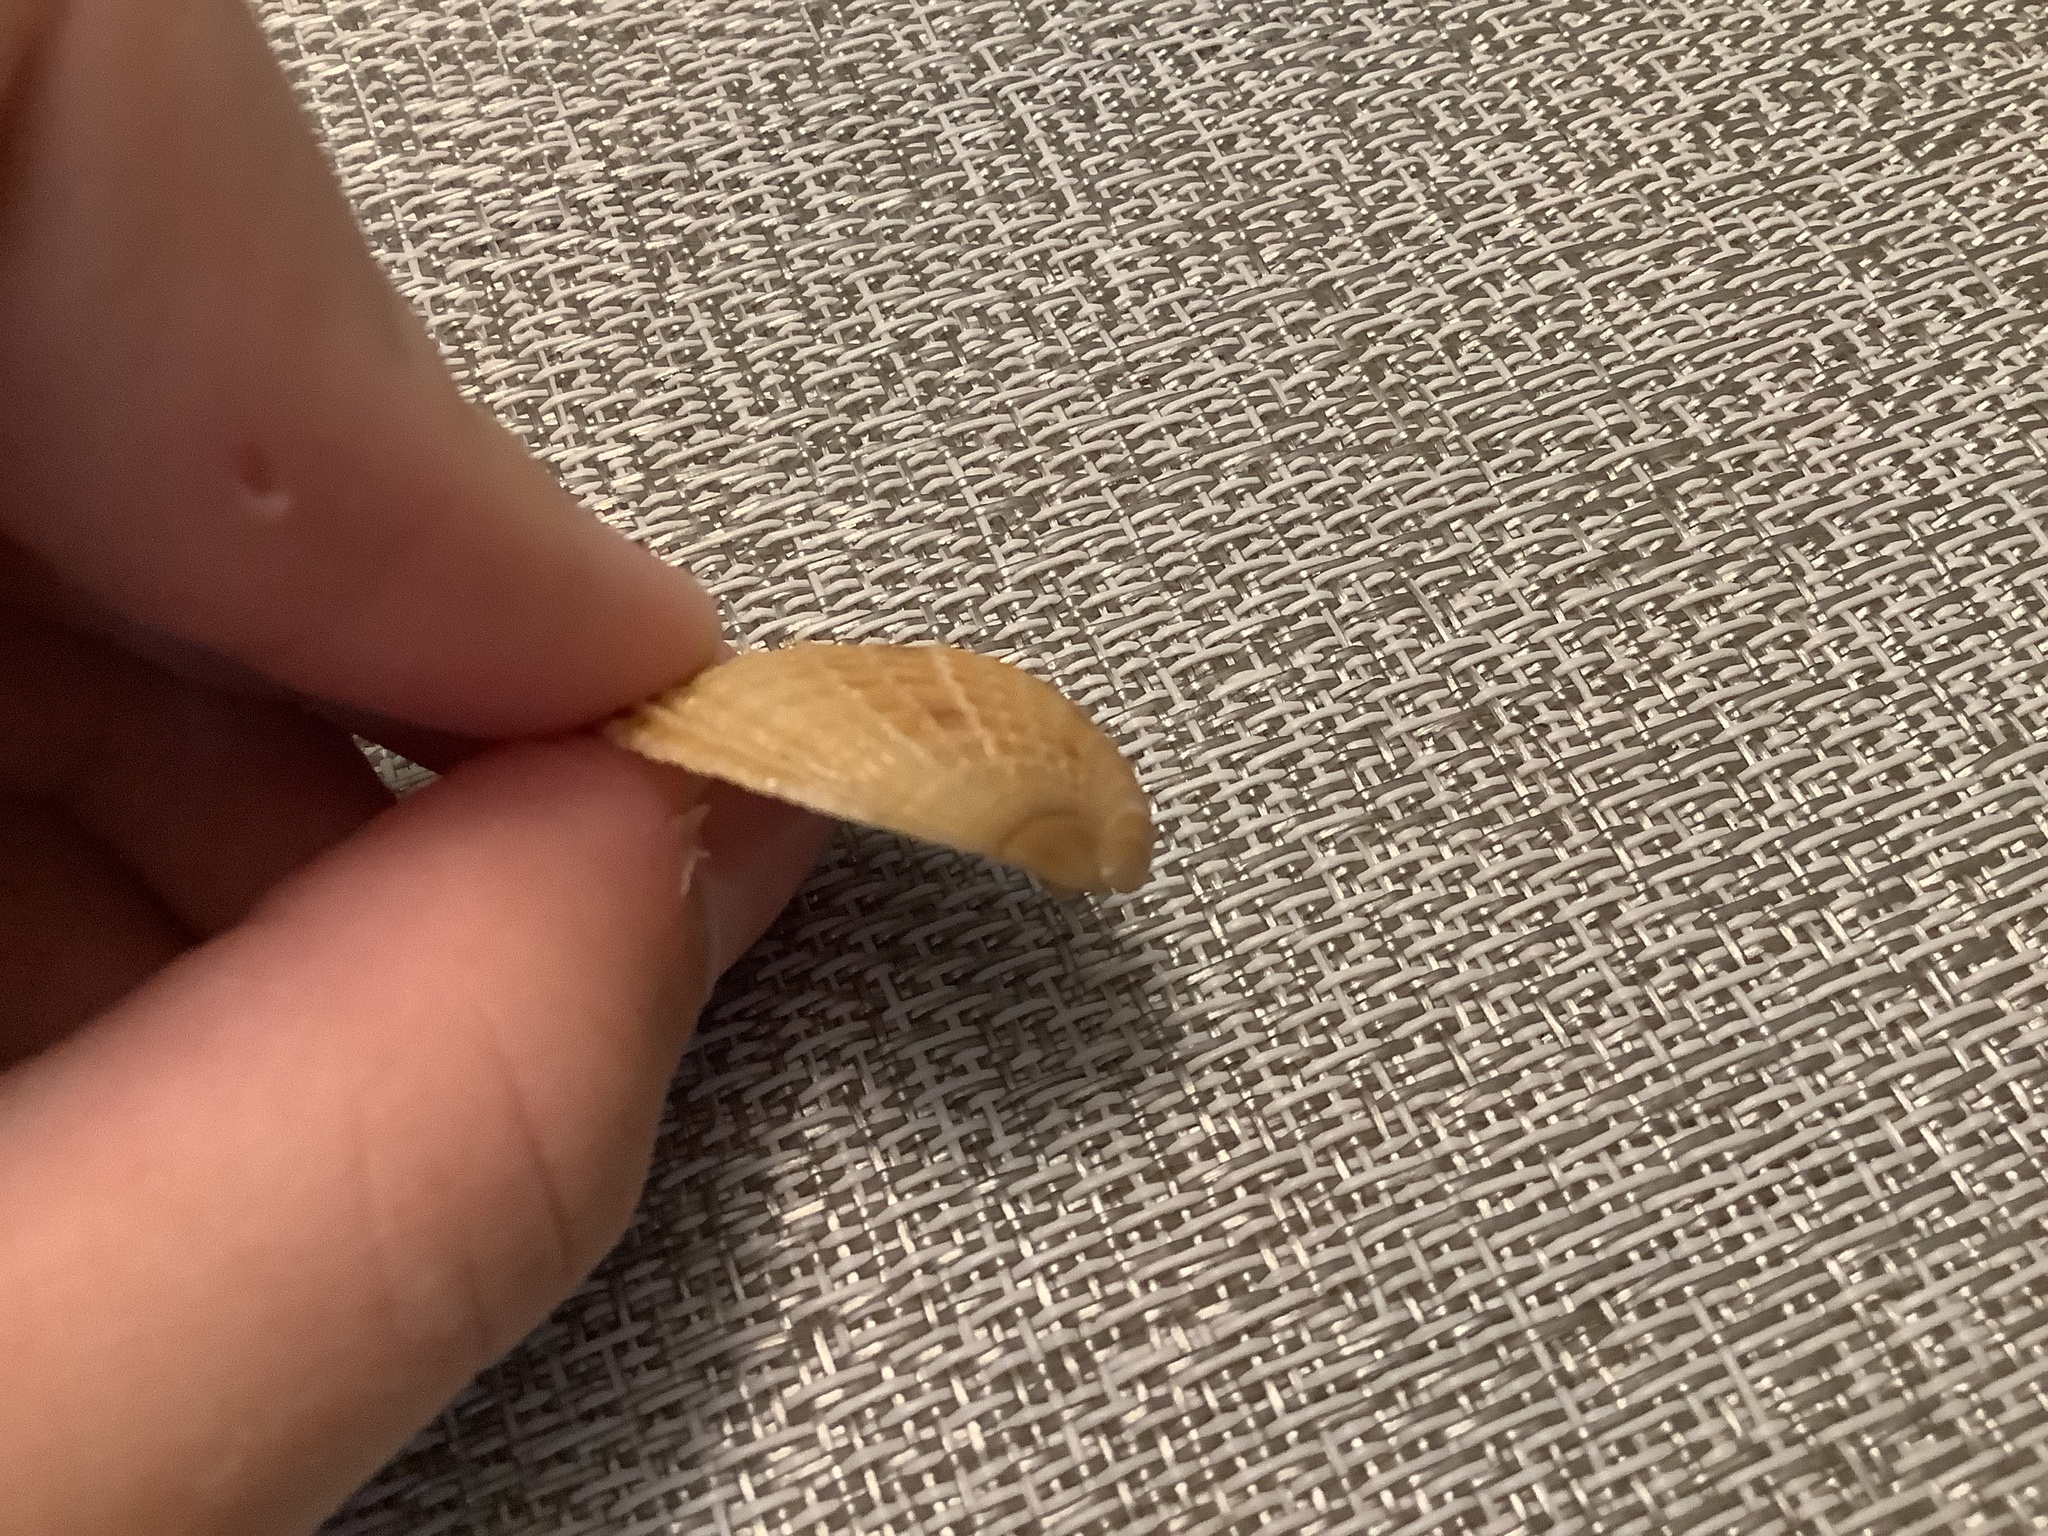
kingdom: Animalia
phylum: Mollusca
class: Bivalvia
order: Venerida
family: Veneridae
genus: Chione
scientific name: Chione elevata
